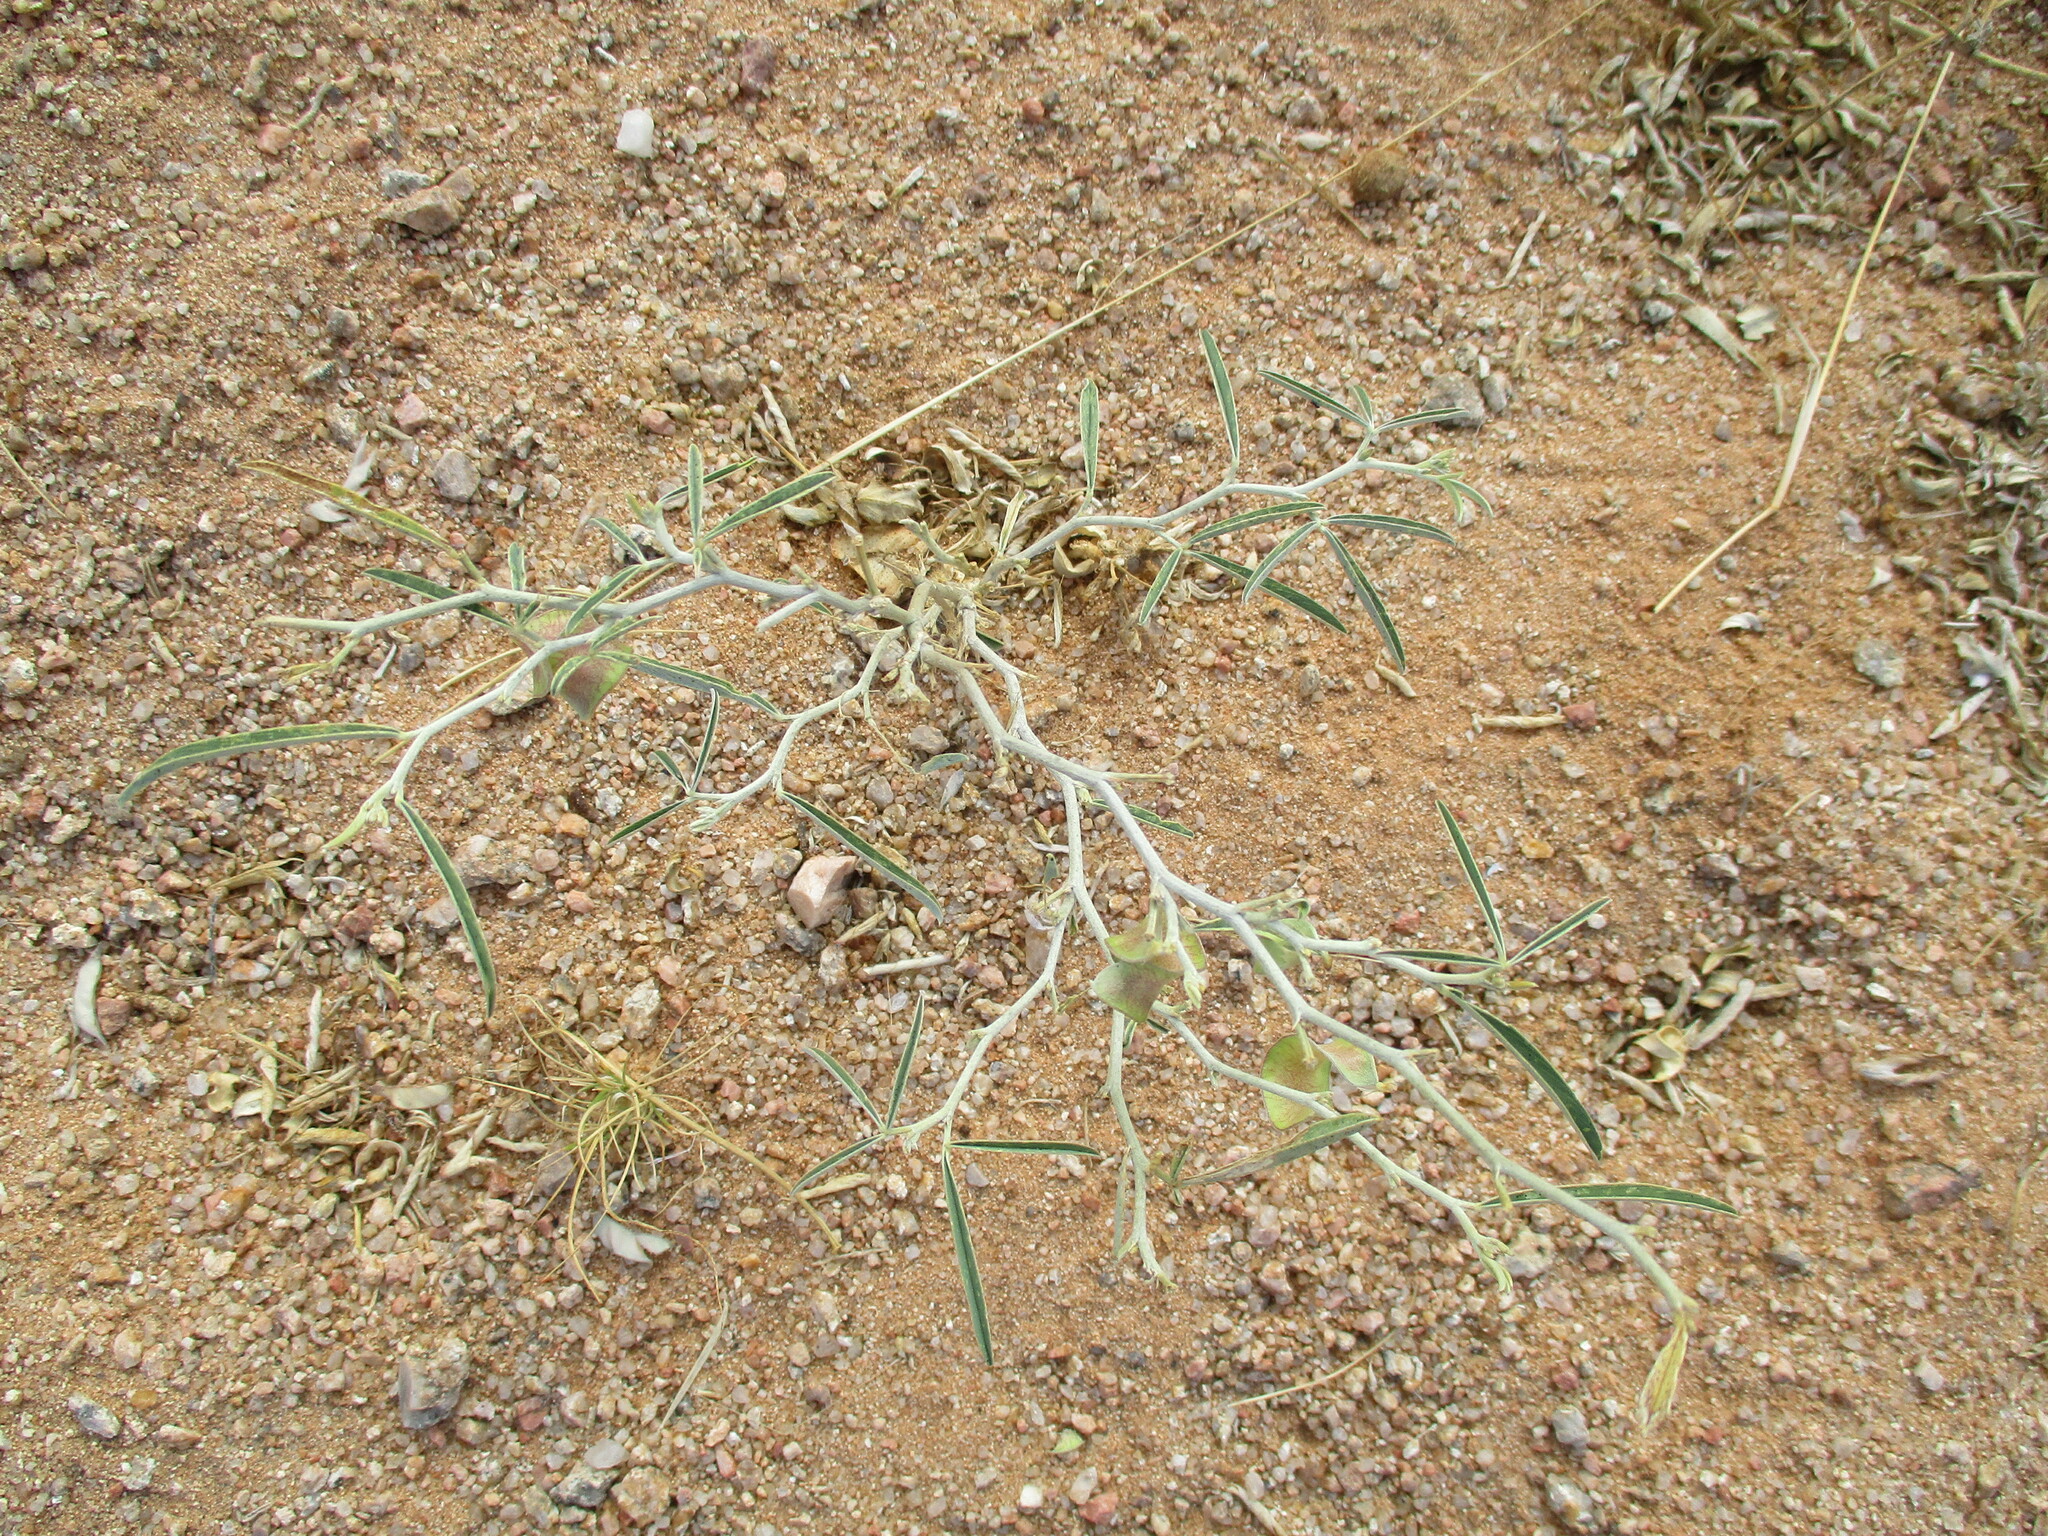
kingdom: Plantae
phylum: Tracheophyta
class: Magnoliopsida
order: Fabales
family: Fabaceae
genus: Ptycholobium
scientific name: Ptycholobium biflorum
